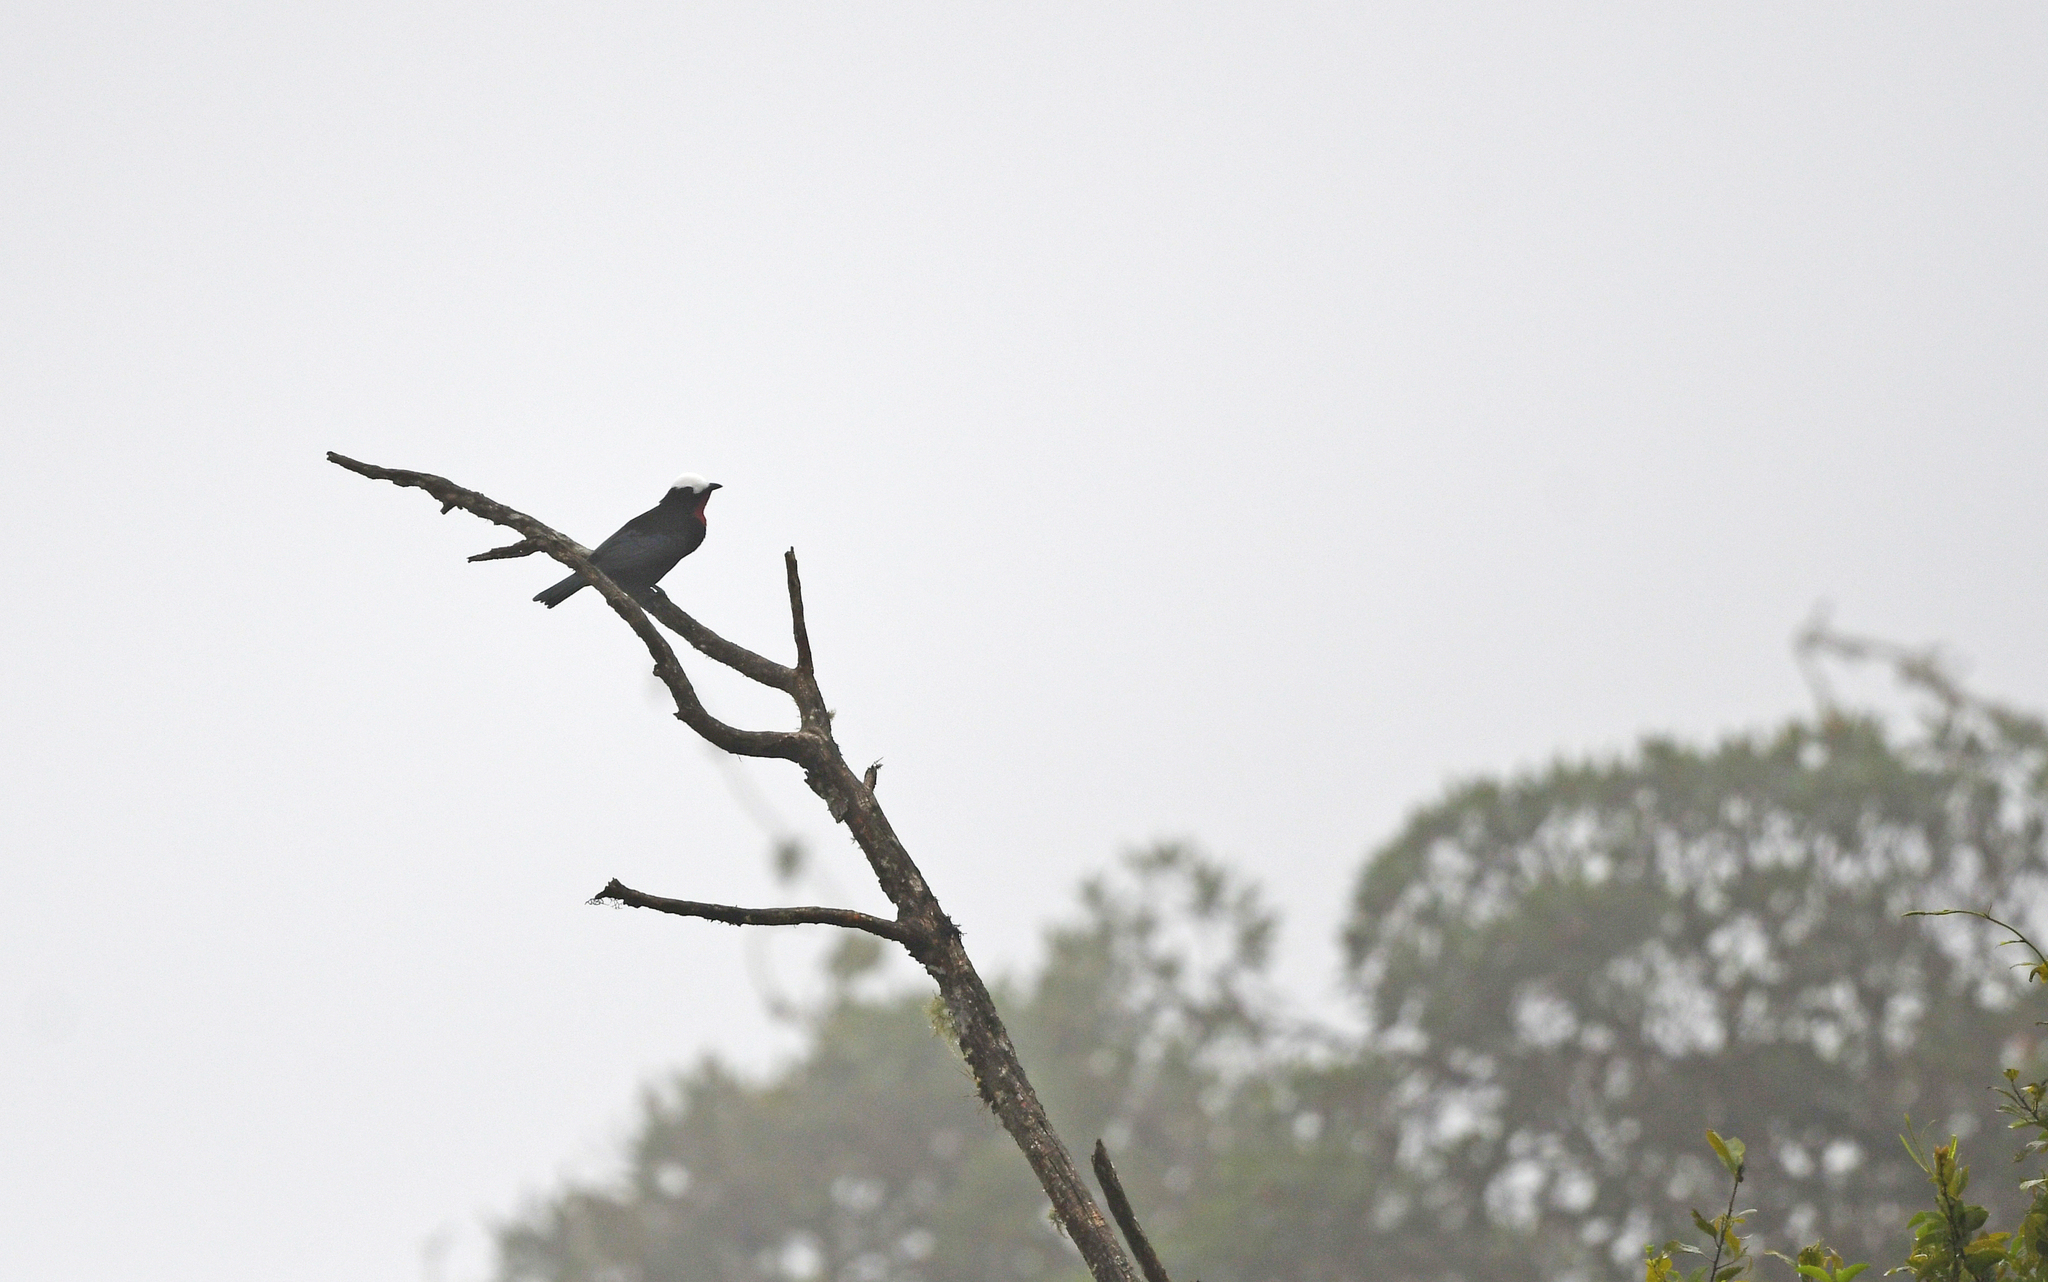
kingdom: Animalia
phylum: Chordata
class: Aves
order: Passeriformes
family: Thraupidae
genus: Sericossypha
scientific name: Sericossypha albocristata
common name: White-capped tanager
